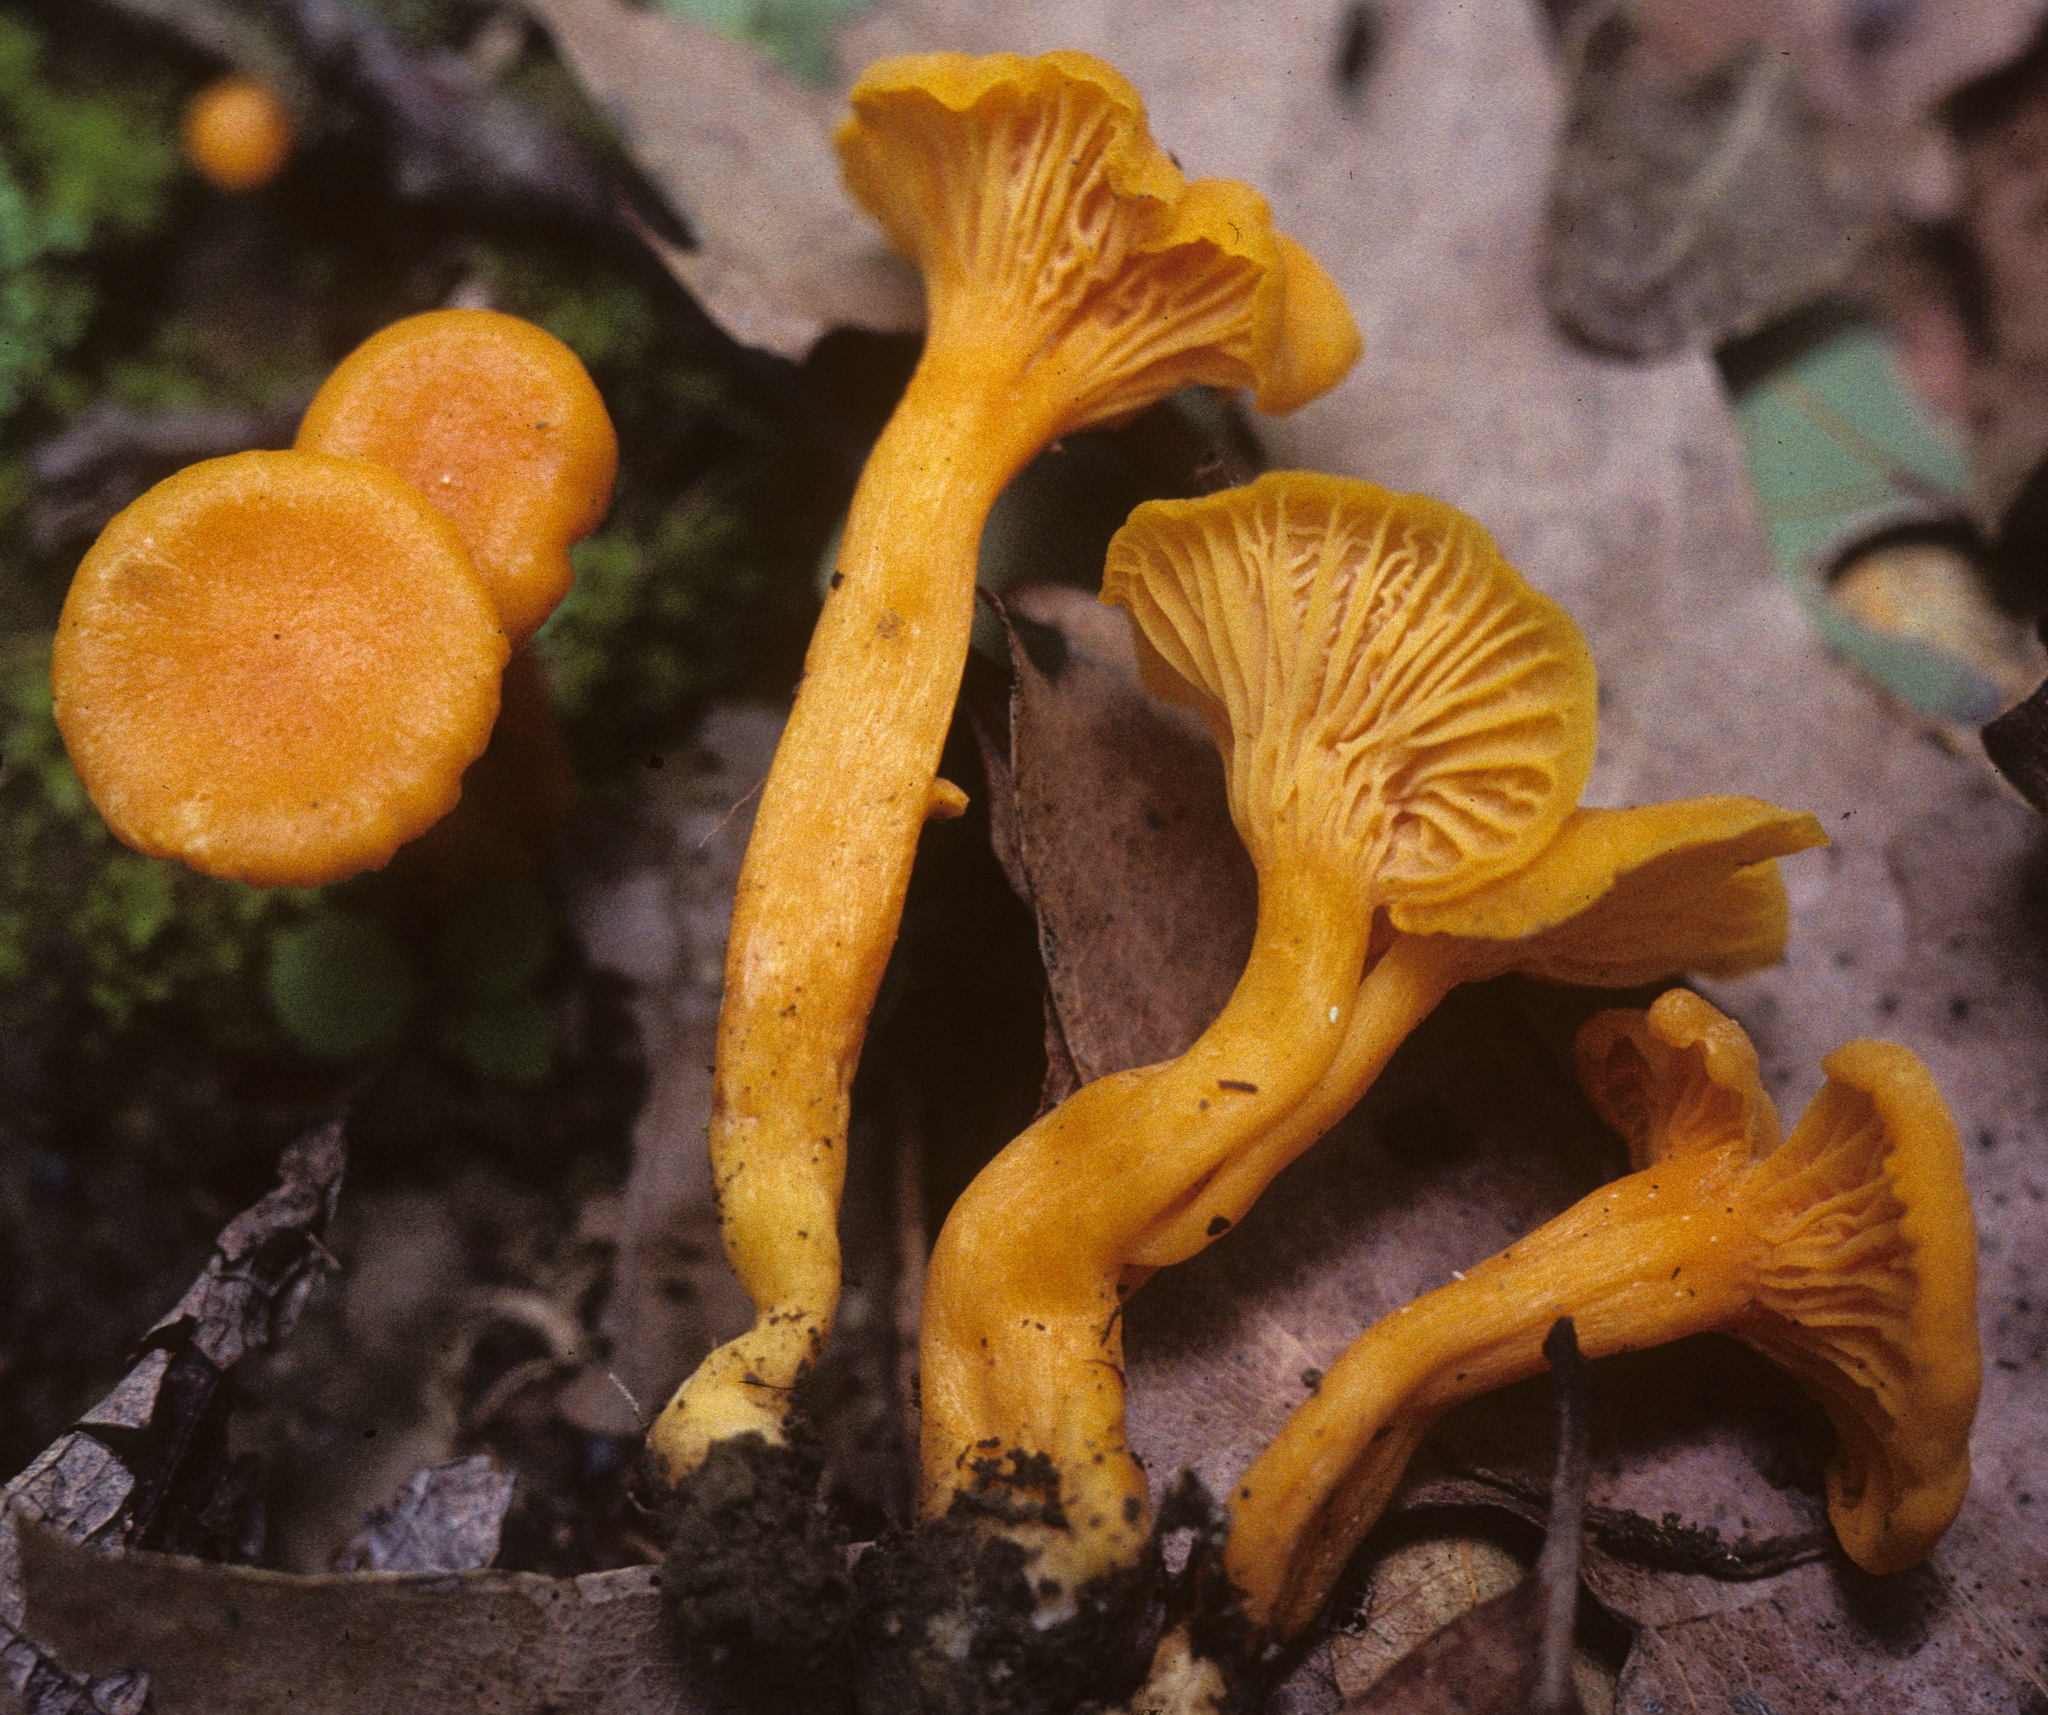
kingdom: Fungi
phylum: Basidiomycota
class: Agaricomycetes
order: Cantharellales
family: Hydnaceae
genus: Cantharellus
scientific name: Cantharellus minor
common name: Small chanterelle
